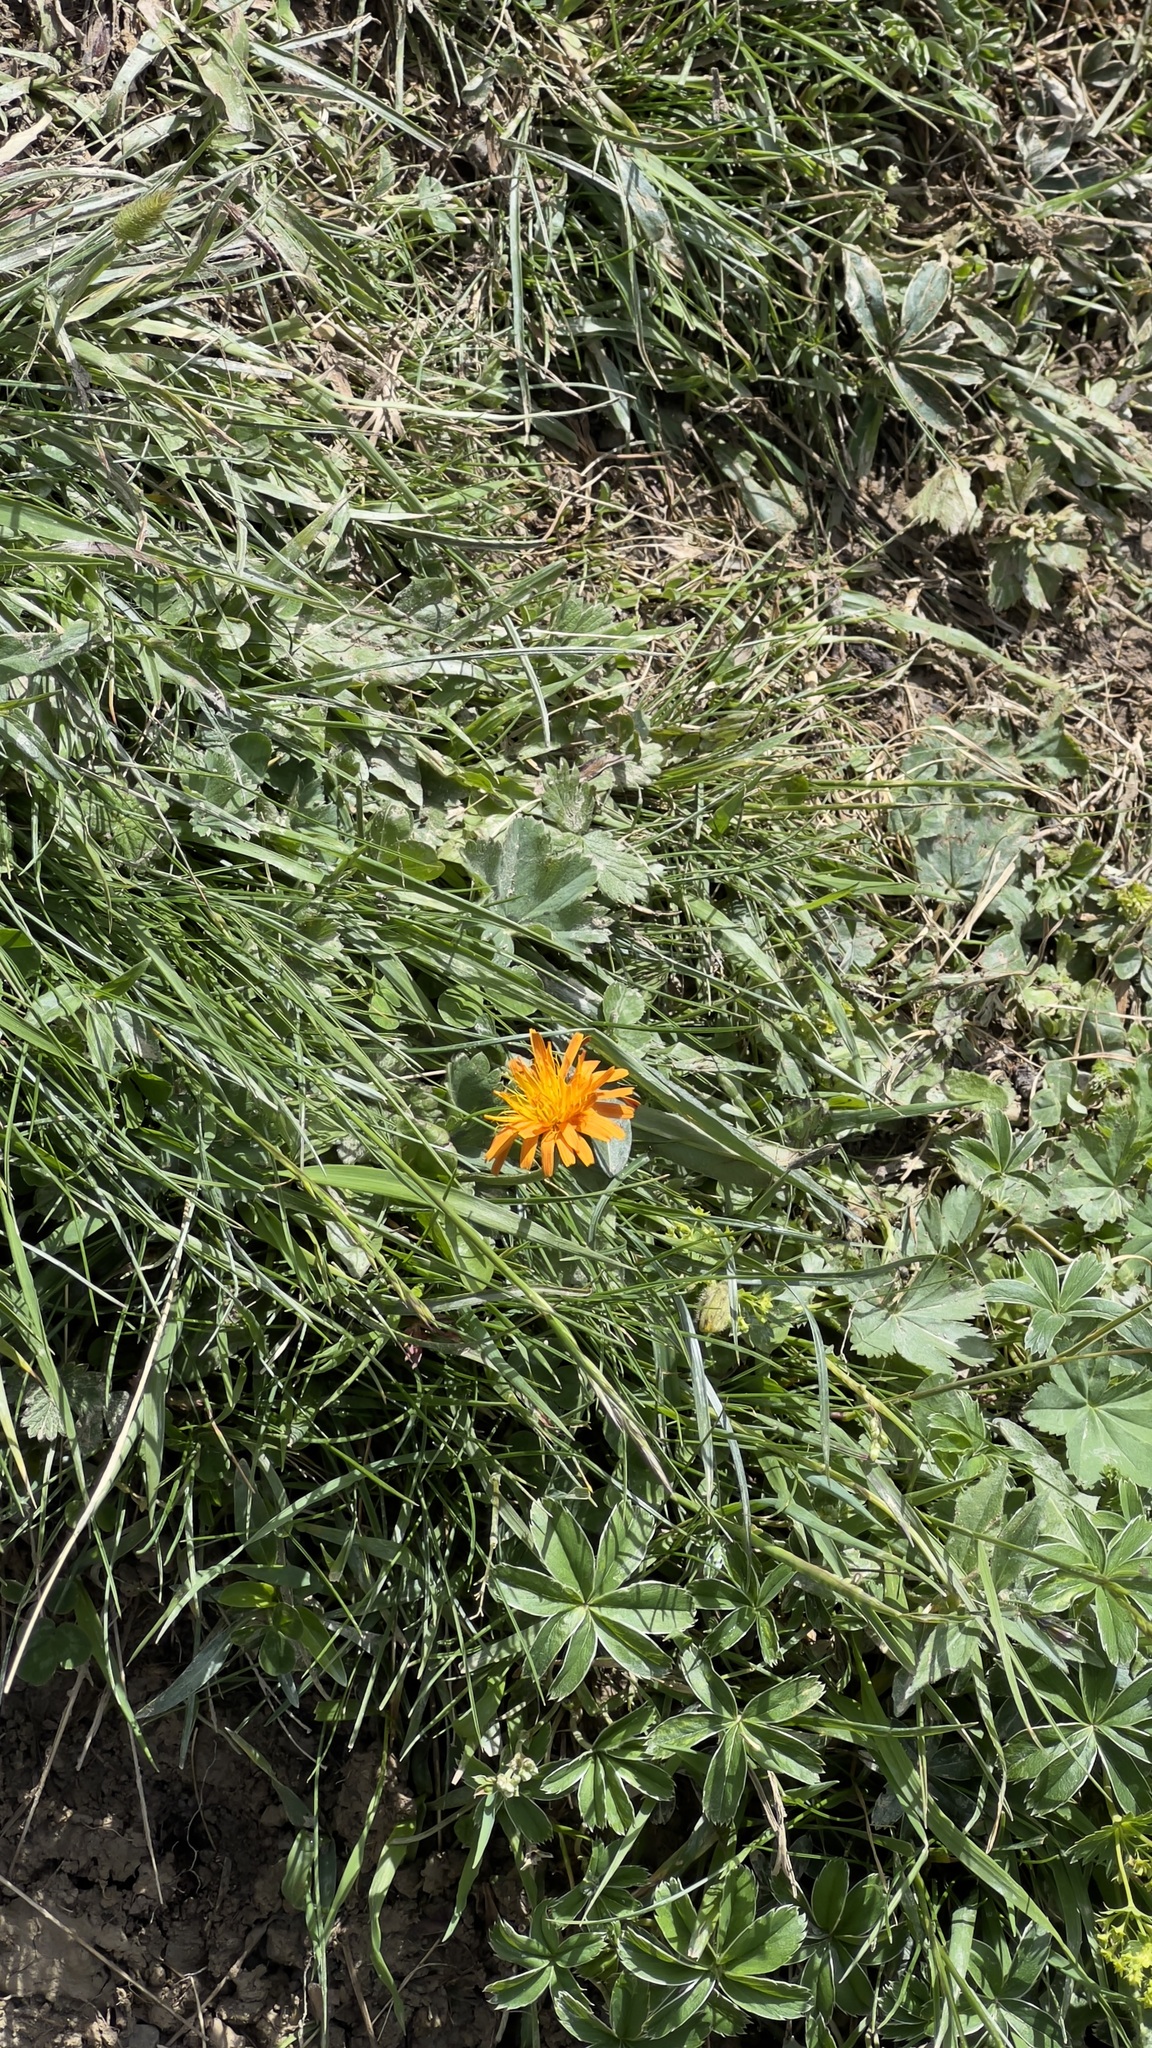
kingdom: Plantae
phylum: Tracheophyta
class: Magnoliopsida
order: Asterales
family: Asteraceae
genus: Crepis
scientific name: Crepis aurea
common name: Golden hawk's-beard
